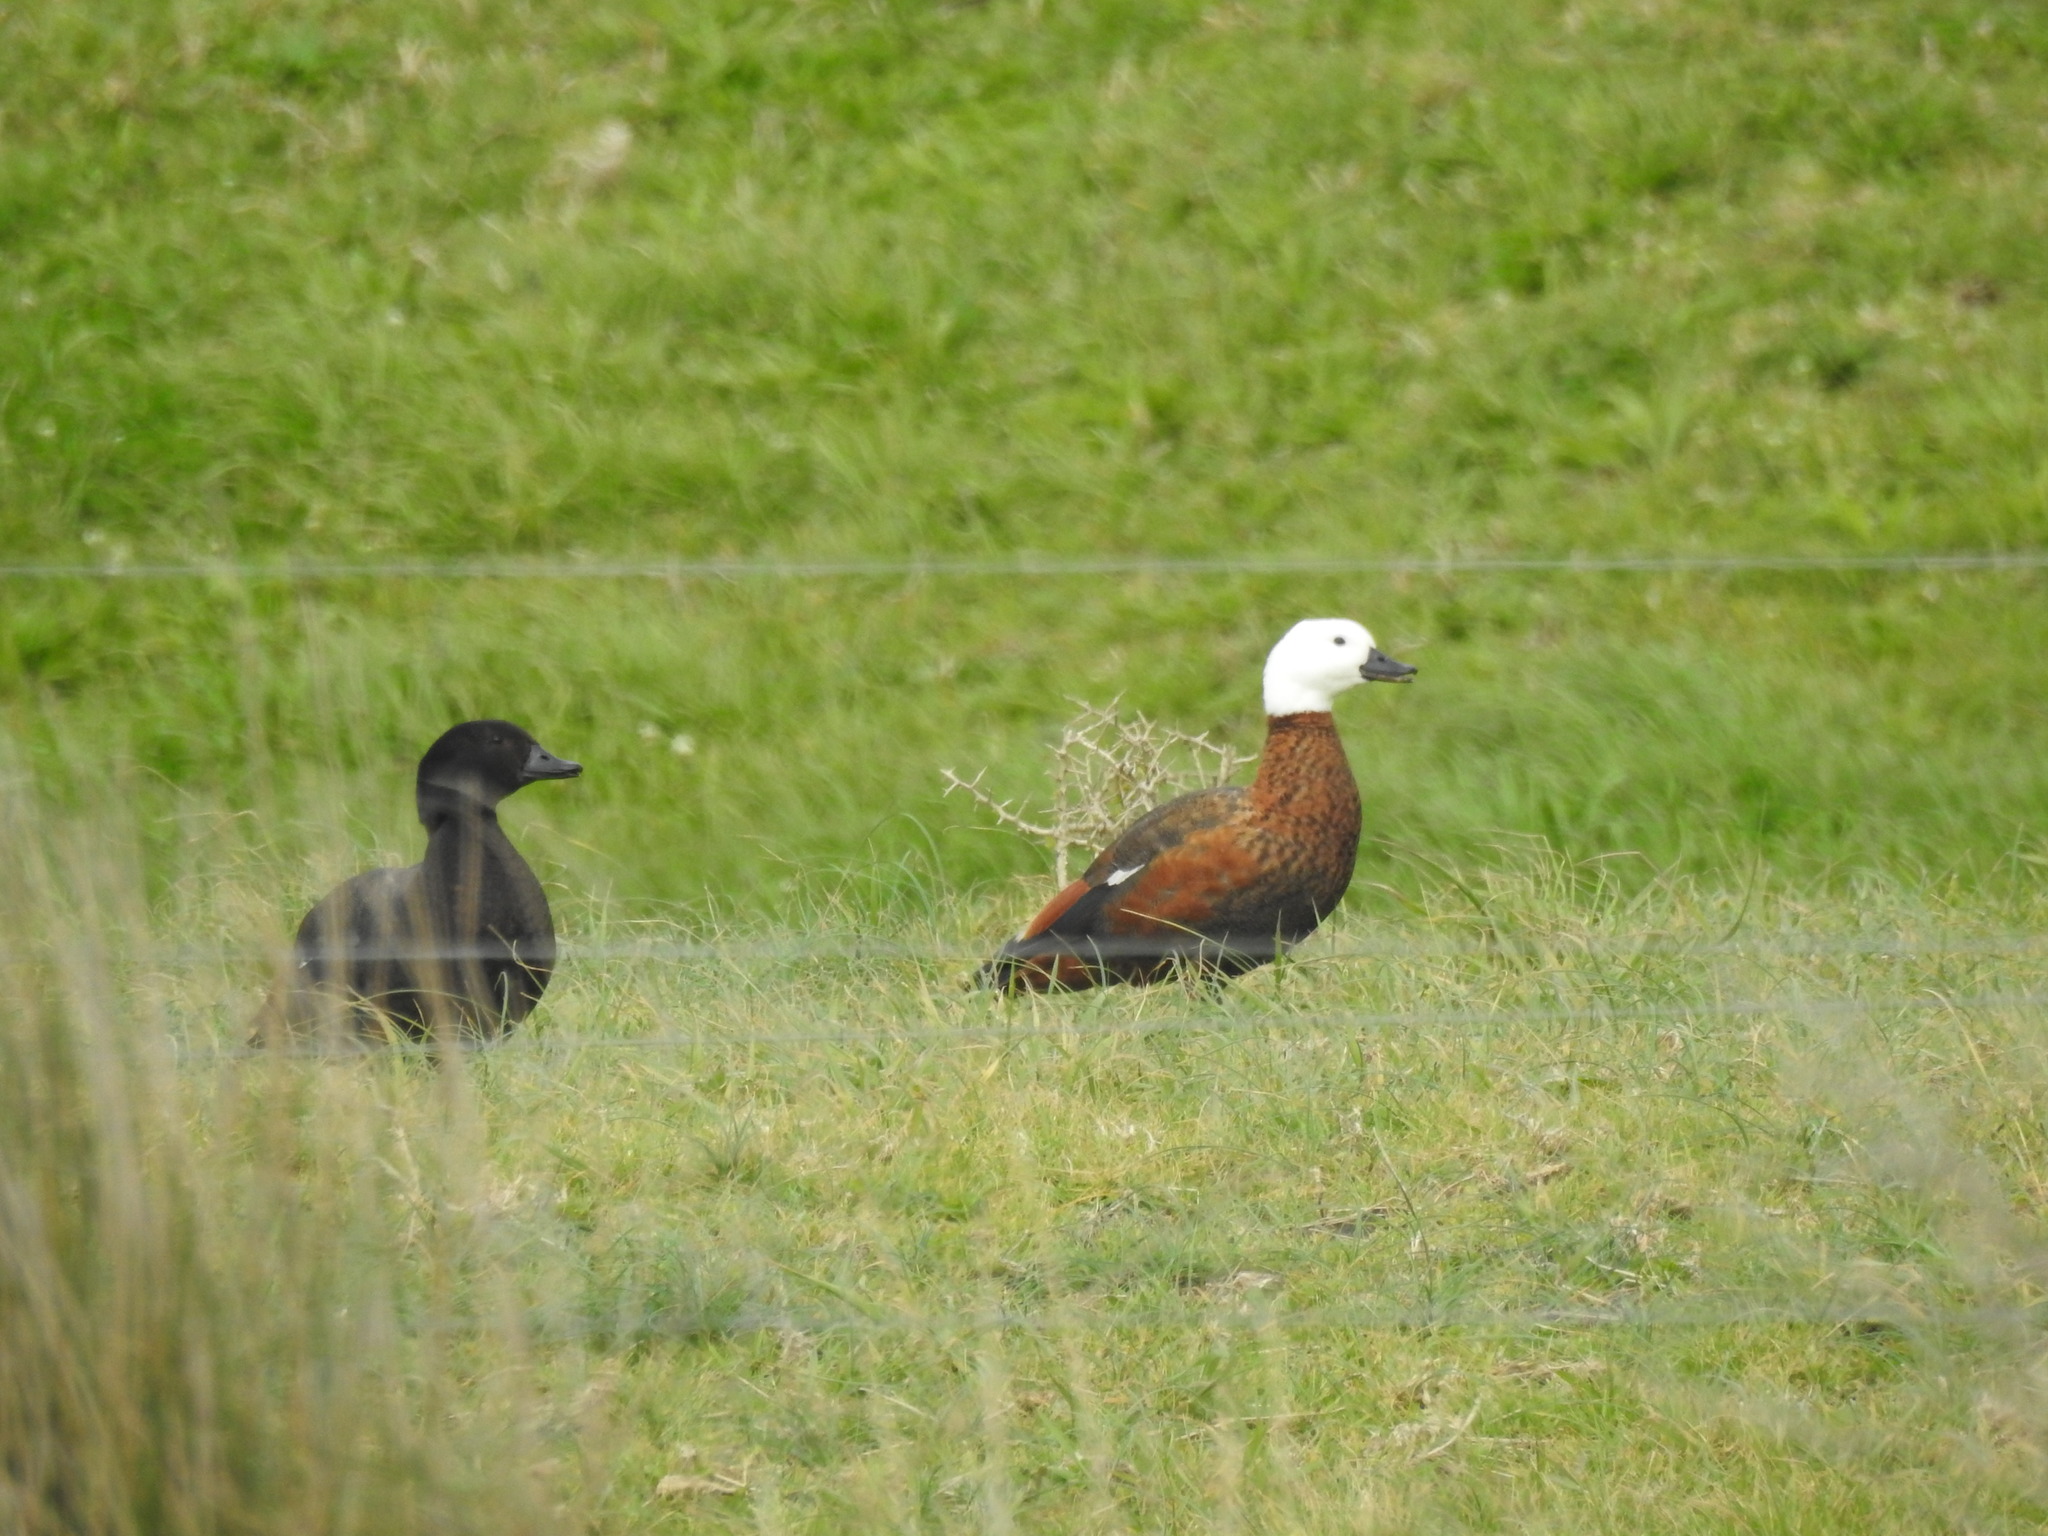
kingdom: Animalia
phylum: Chordata
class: Aves
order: Anseriformes
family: Anatidae
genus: Tadorna
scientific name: Tadorna variegata
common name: Paradise shelduck
